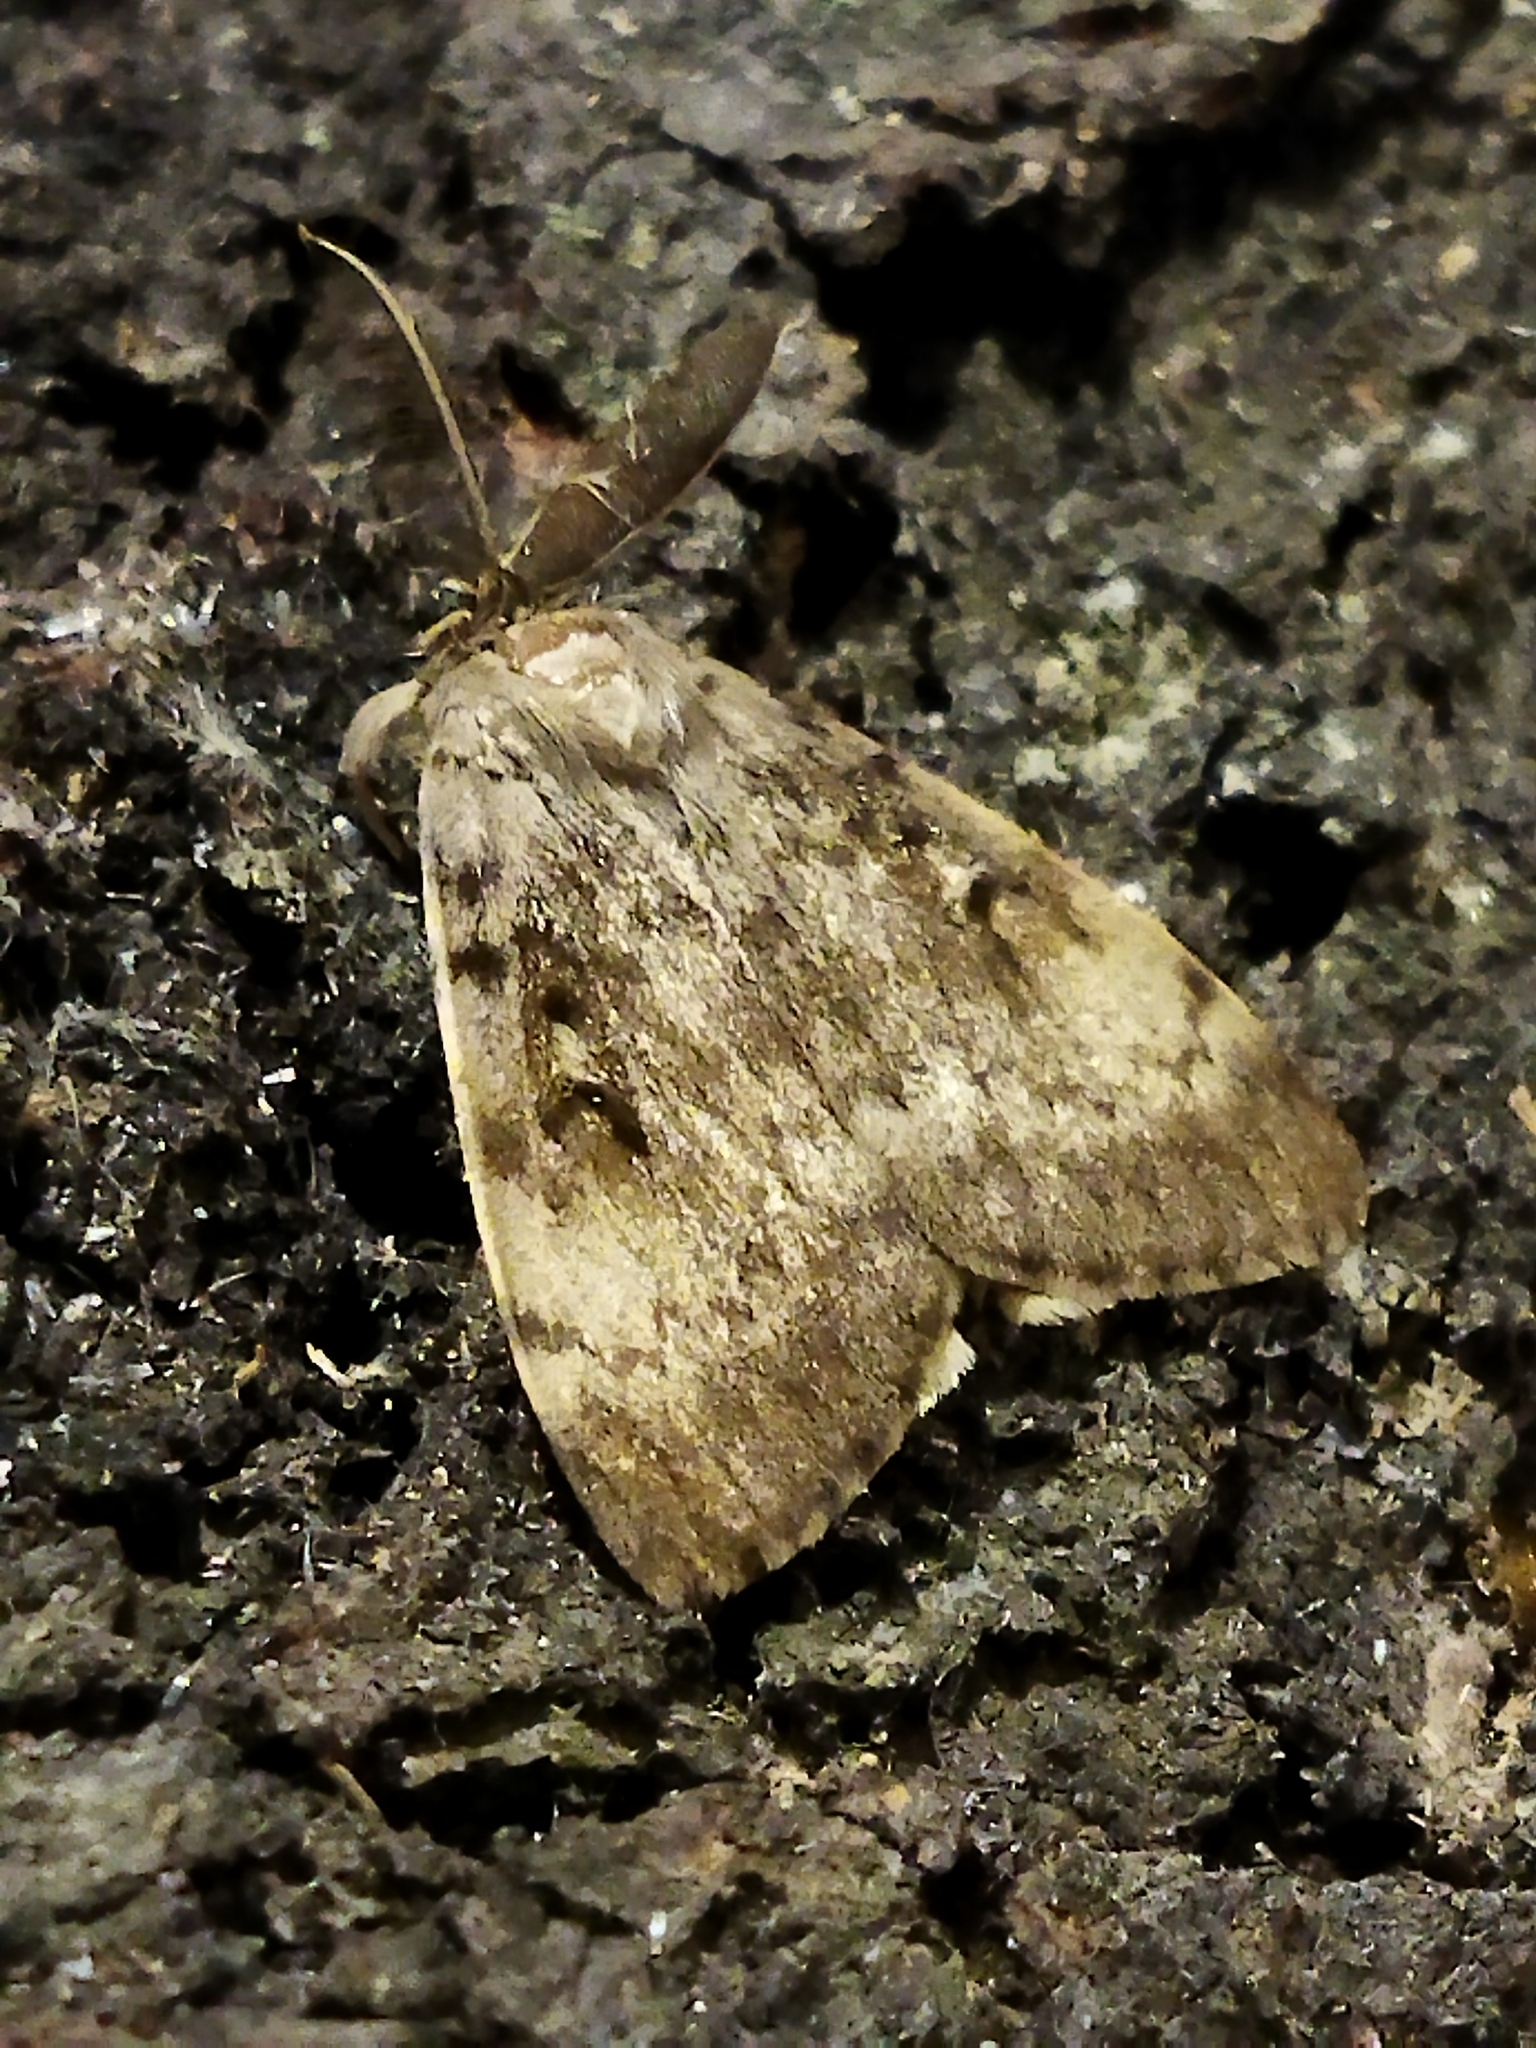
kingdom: Animalia
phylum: Arthropoda
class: Insecta
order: Lepidoptera
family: Erebidae
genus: Lymantria
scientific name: Lymantria dispar
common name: Gypsy moth
